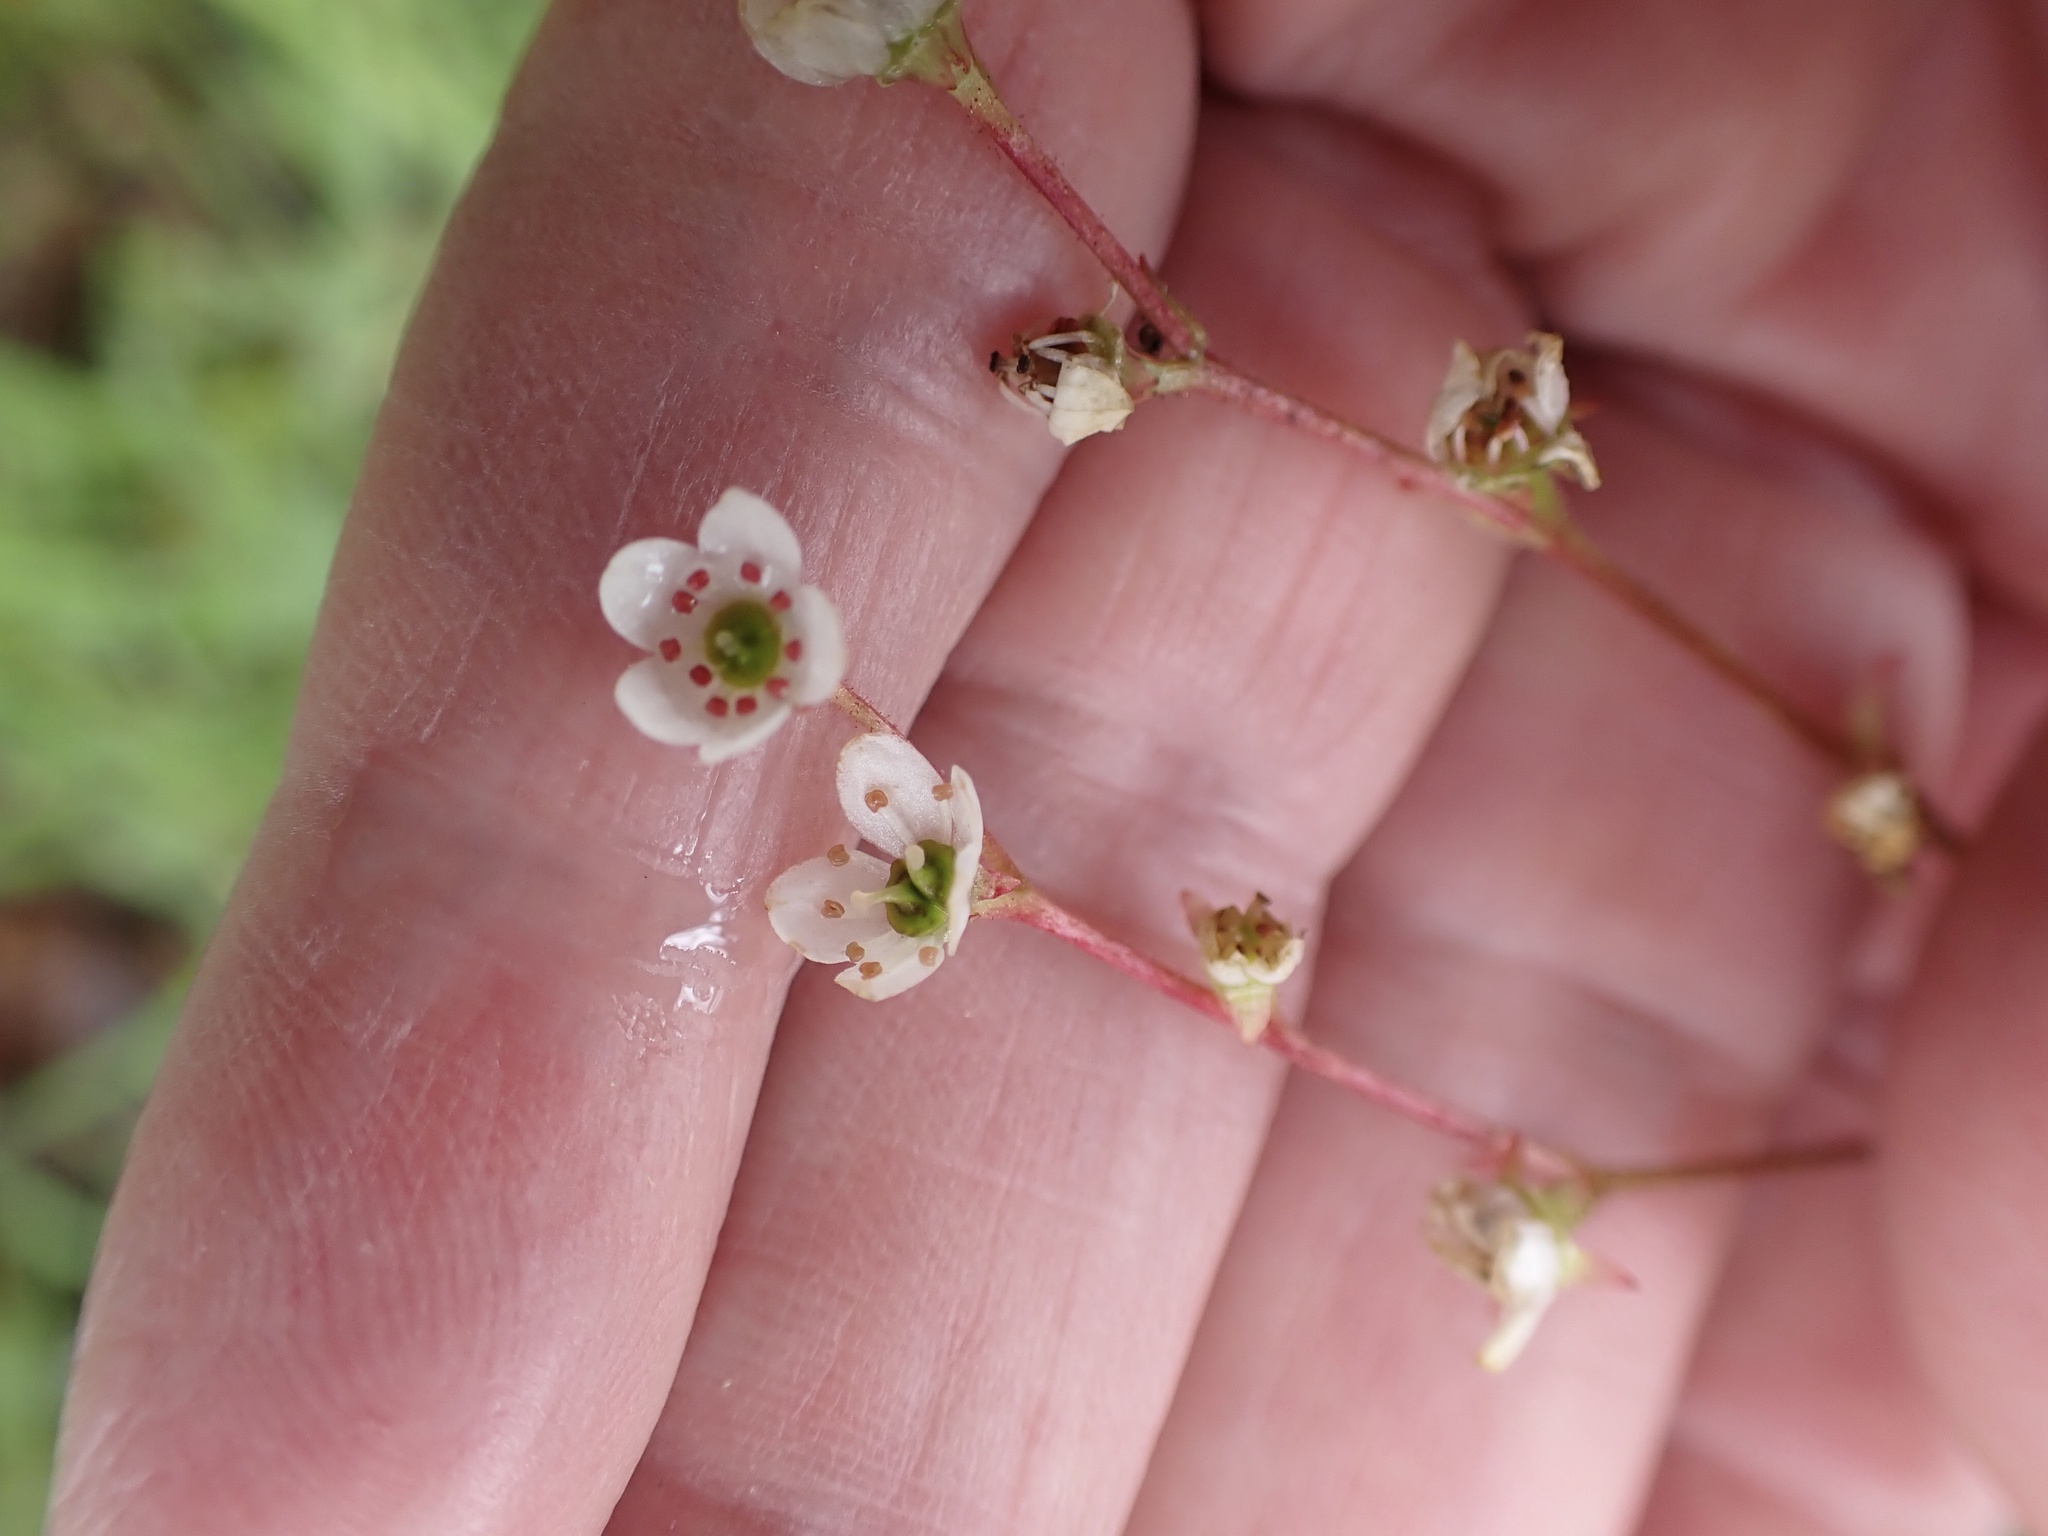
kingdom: Plantae
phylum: Tracheophyta
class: Magnoliopsida
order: Saxifragales
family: Saxifragaceae
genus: Micranthes
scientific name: Micranthes californica
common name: California saxifrage
